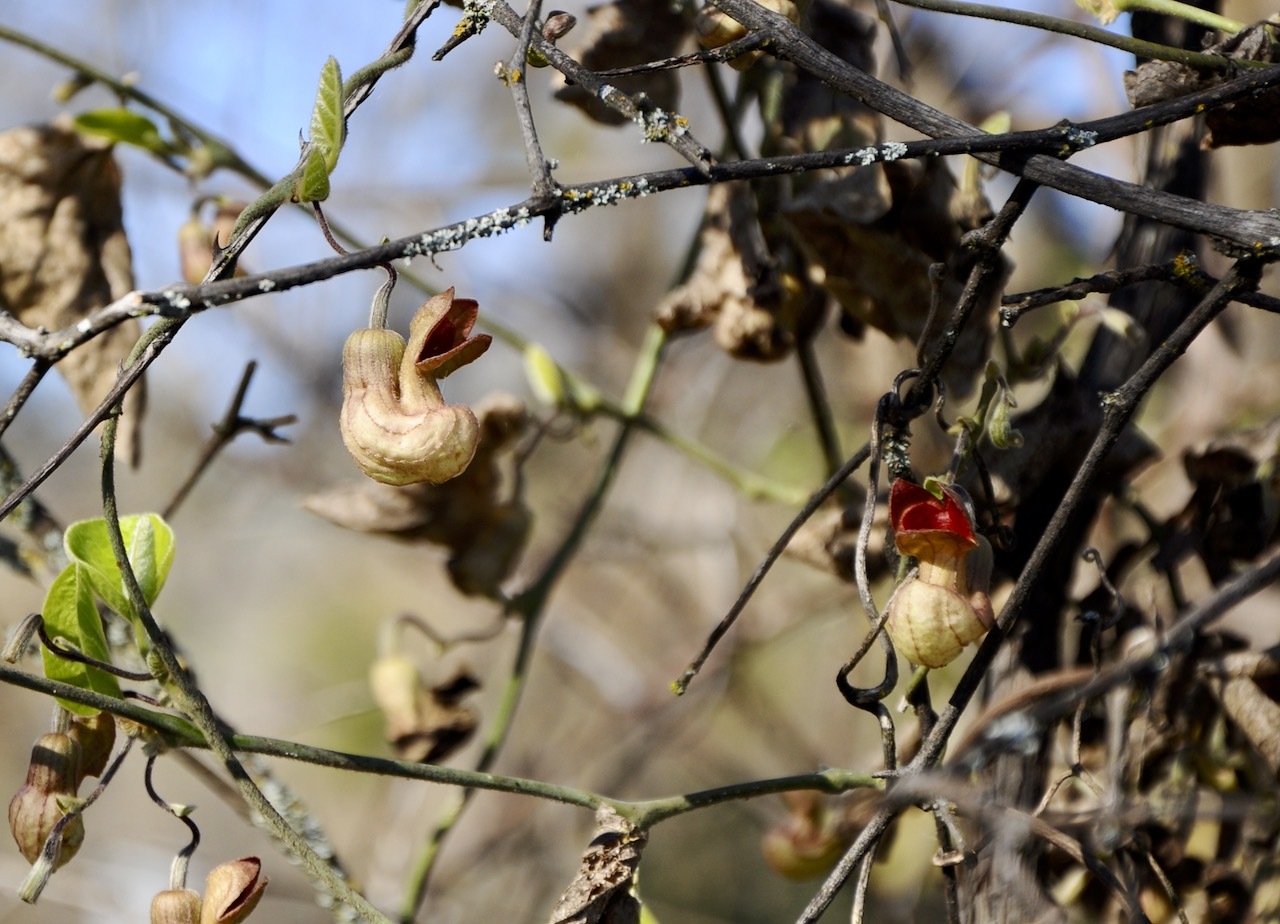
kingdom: Plantae
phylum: Tracheophyta
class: Magnoliopsida
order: Piperales
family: Aristolochiaceae
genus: Isotrema
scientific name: Isotrema californicum
